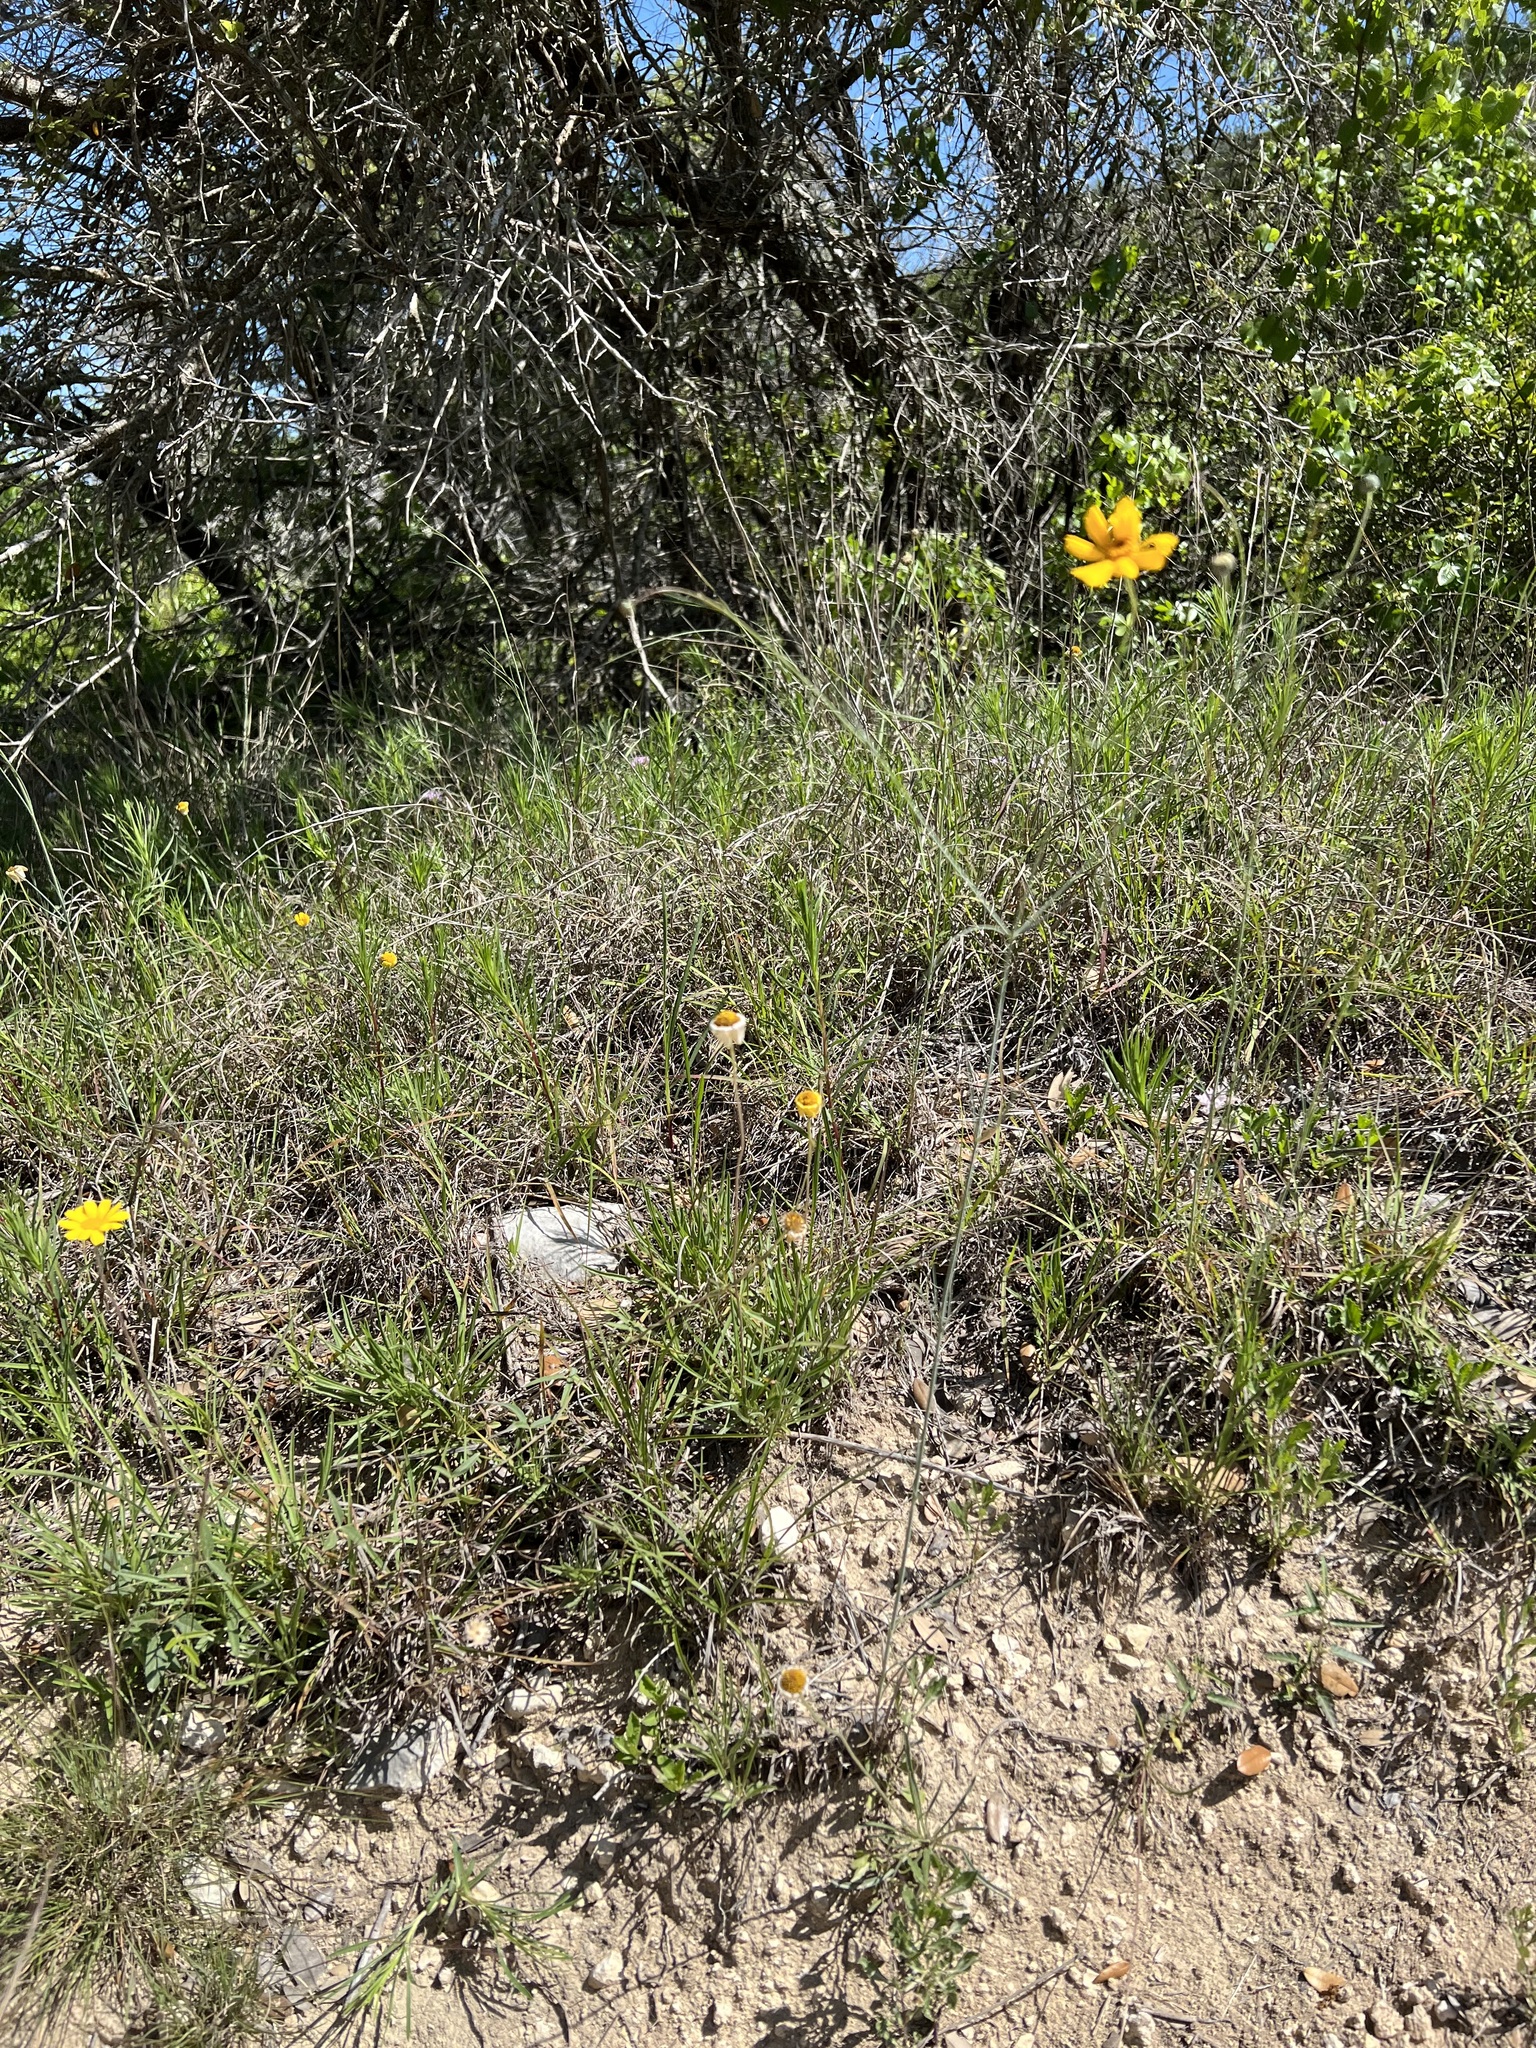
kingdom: Plantae
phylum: Tracheophyta
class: Magnoliopsida
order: Asterales
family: Asteraceae
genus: Thelesperma
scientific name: Thelesperma simplicifolium
